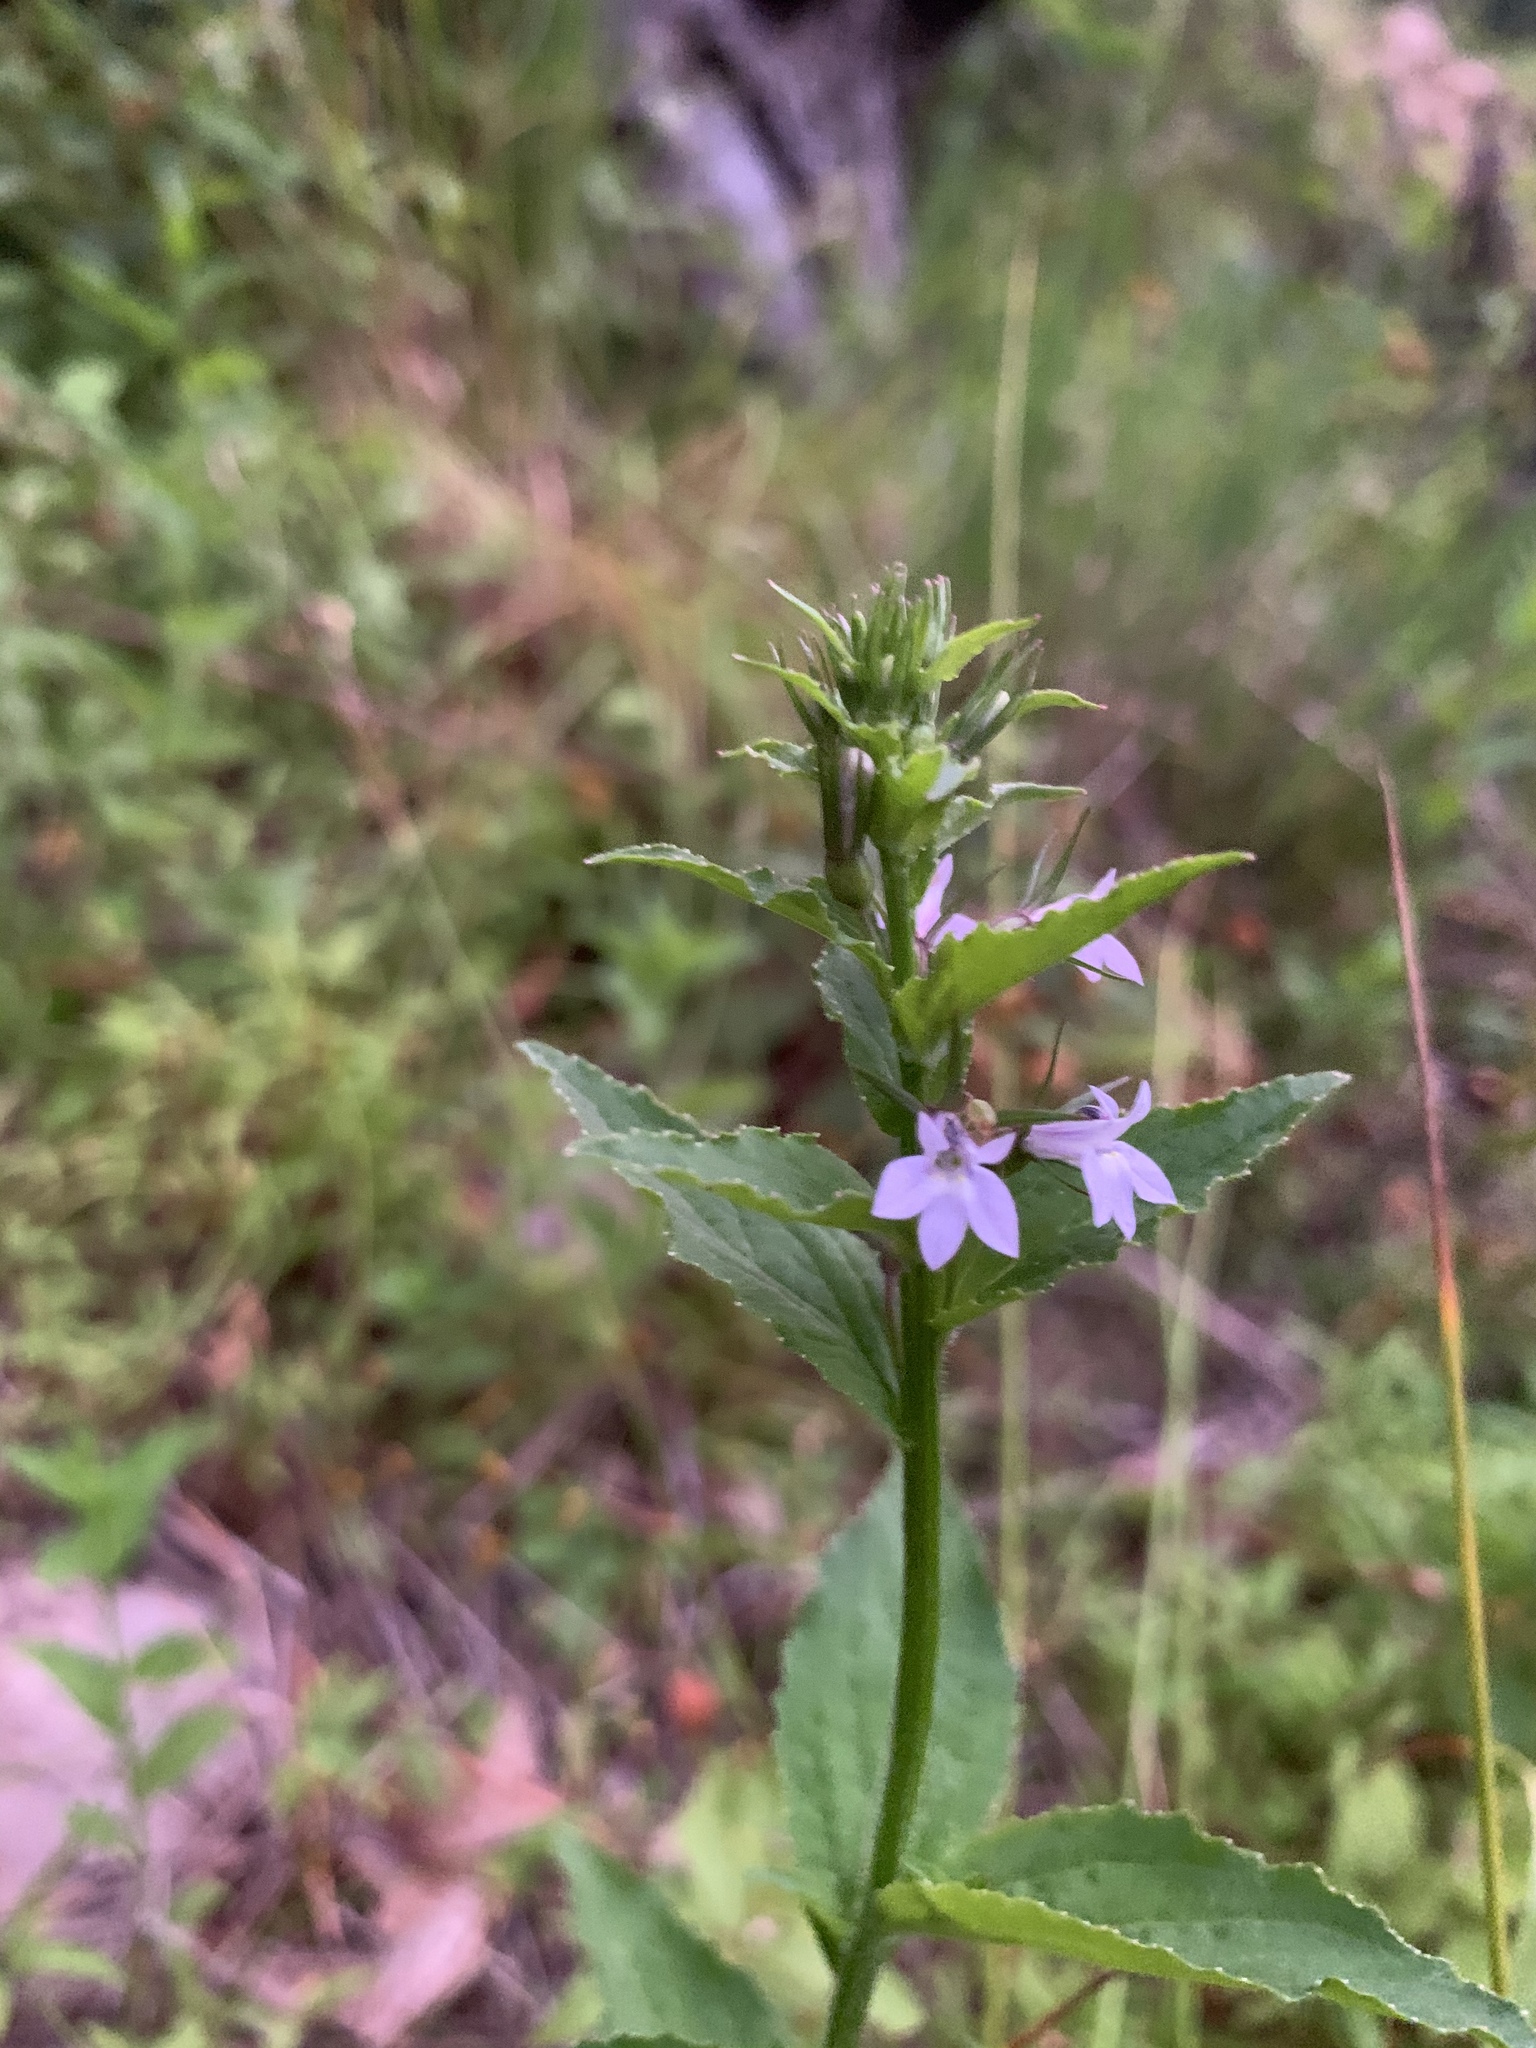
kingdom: Plantae
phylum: Tracheophyta
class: Magnoliopsida
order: Asterales
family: Campanulaceae
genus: Lobelia
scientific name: Lobelia inflata
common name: Indian tobacco
